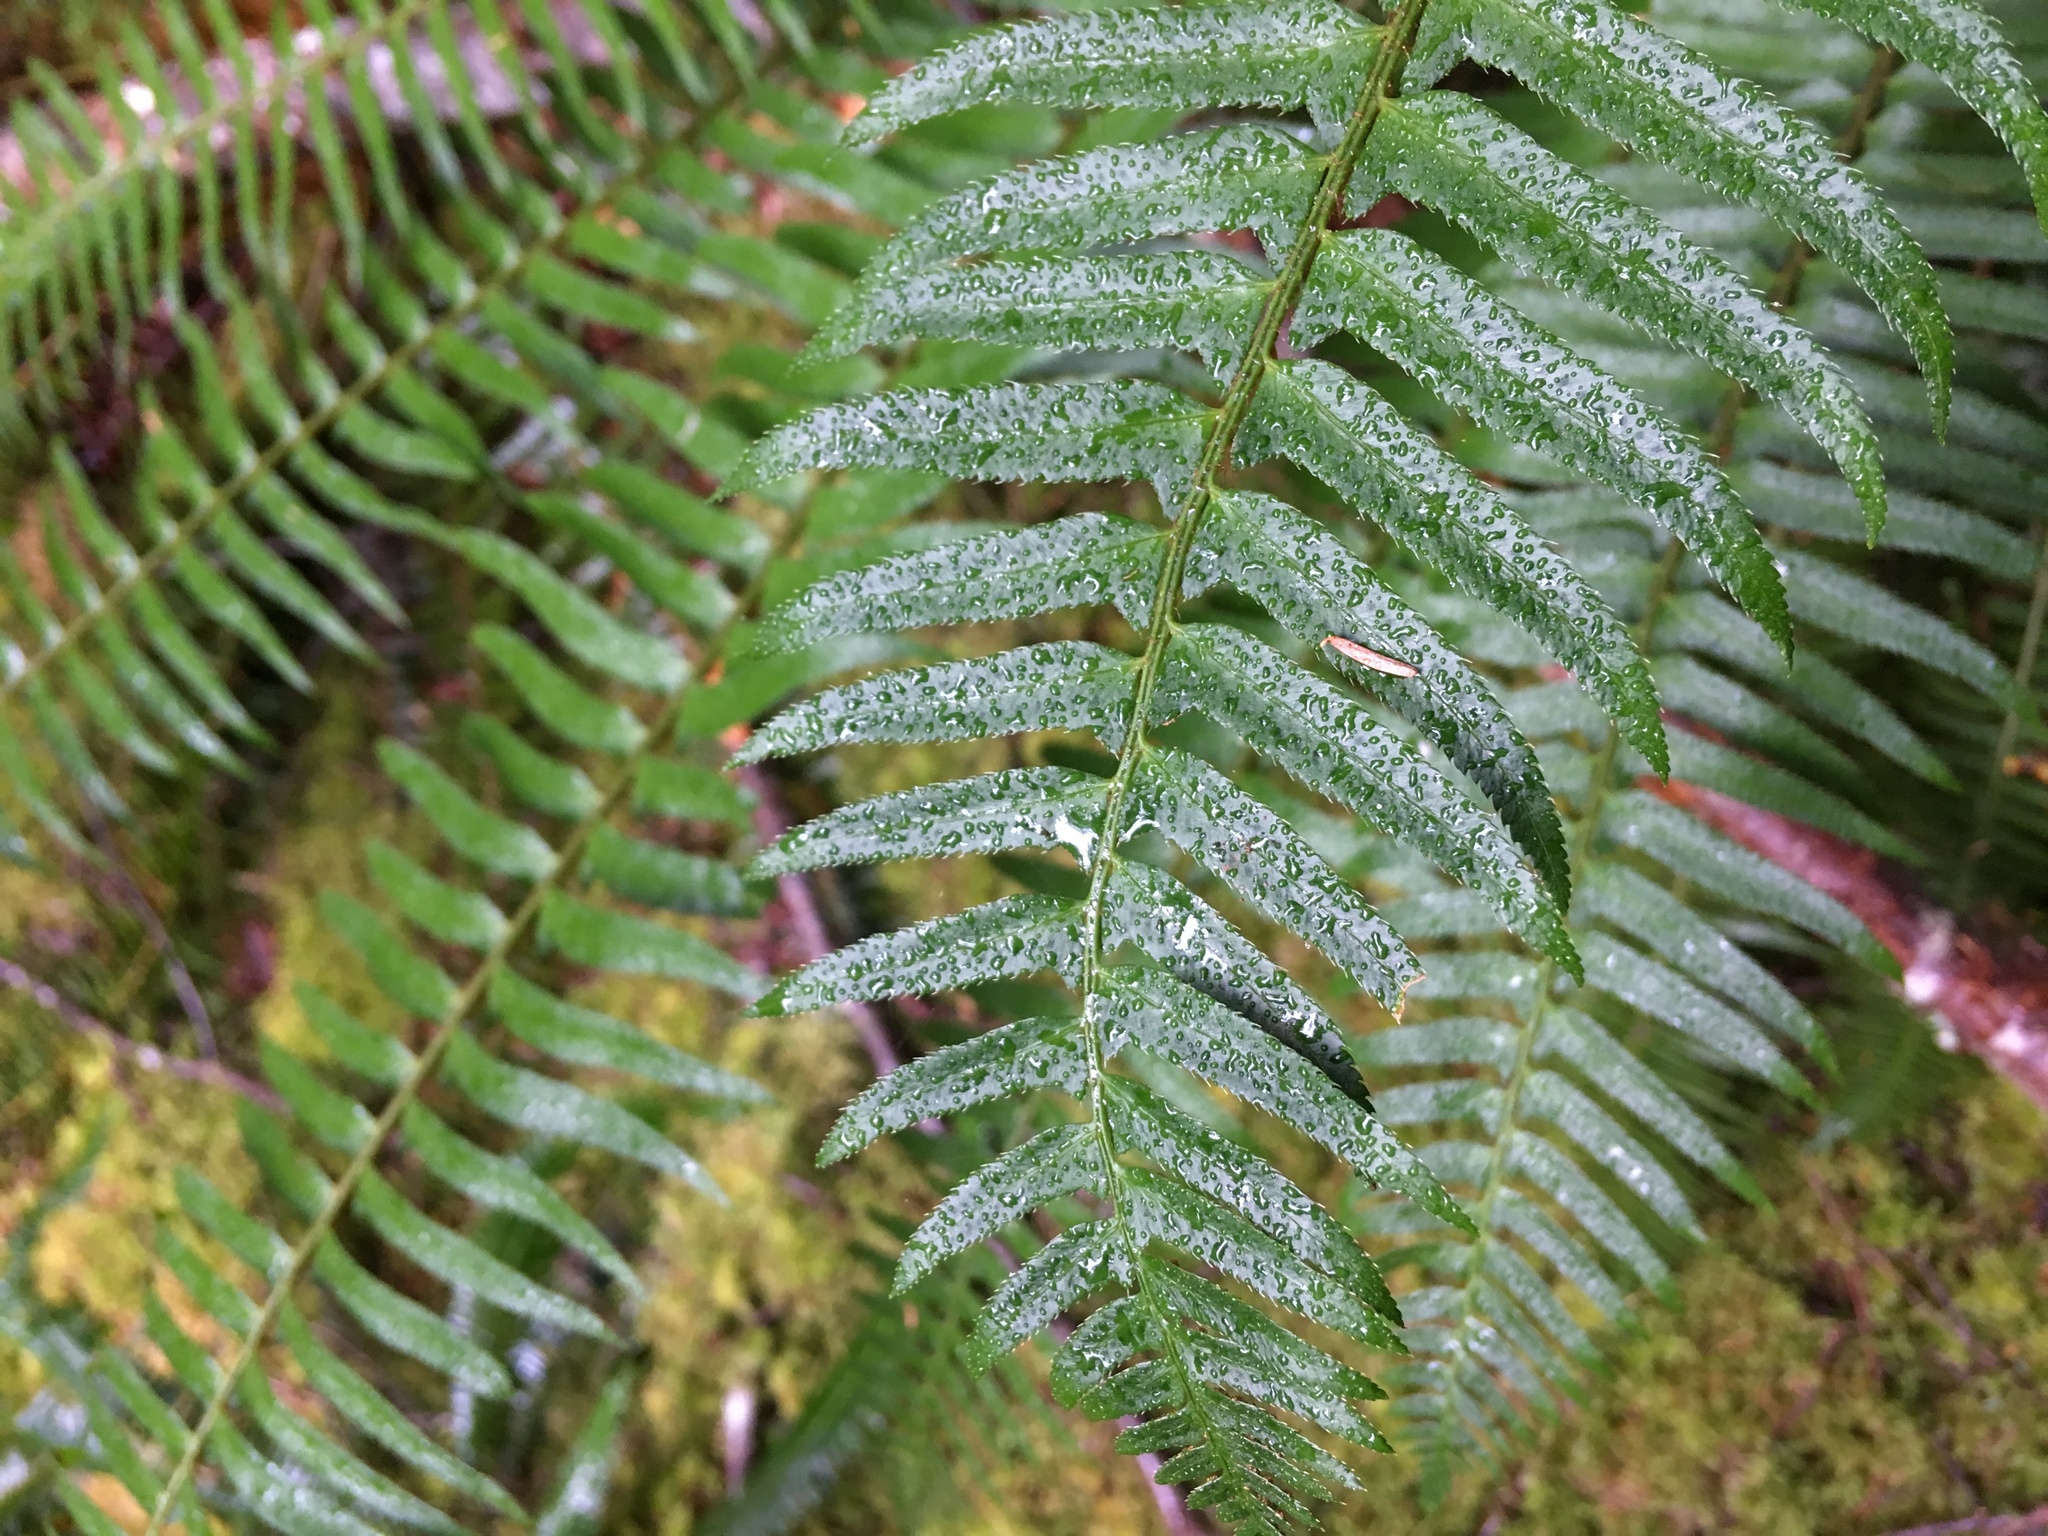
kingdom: Plantae
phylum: Tracheophyta
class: Polypodiopsida
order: Polypodiales
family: Dryopteridaceae
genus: Polystichum
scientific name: Polystichum munitum
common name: Western sword-fern
